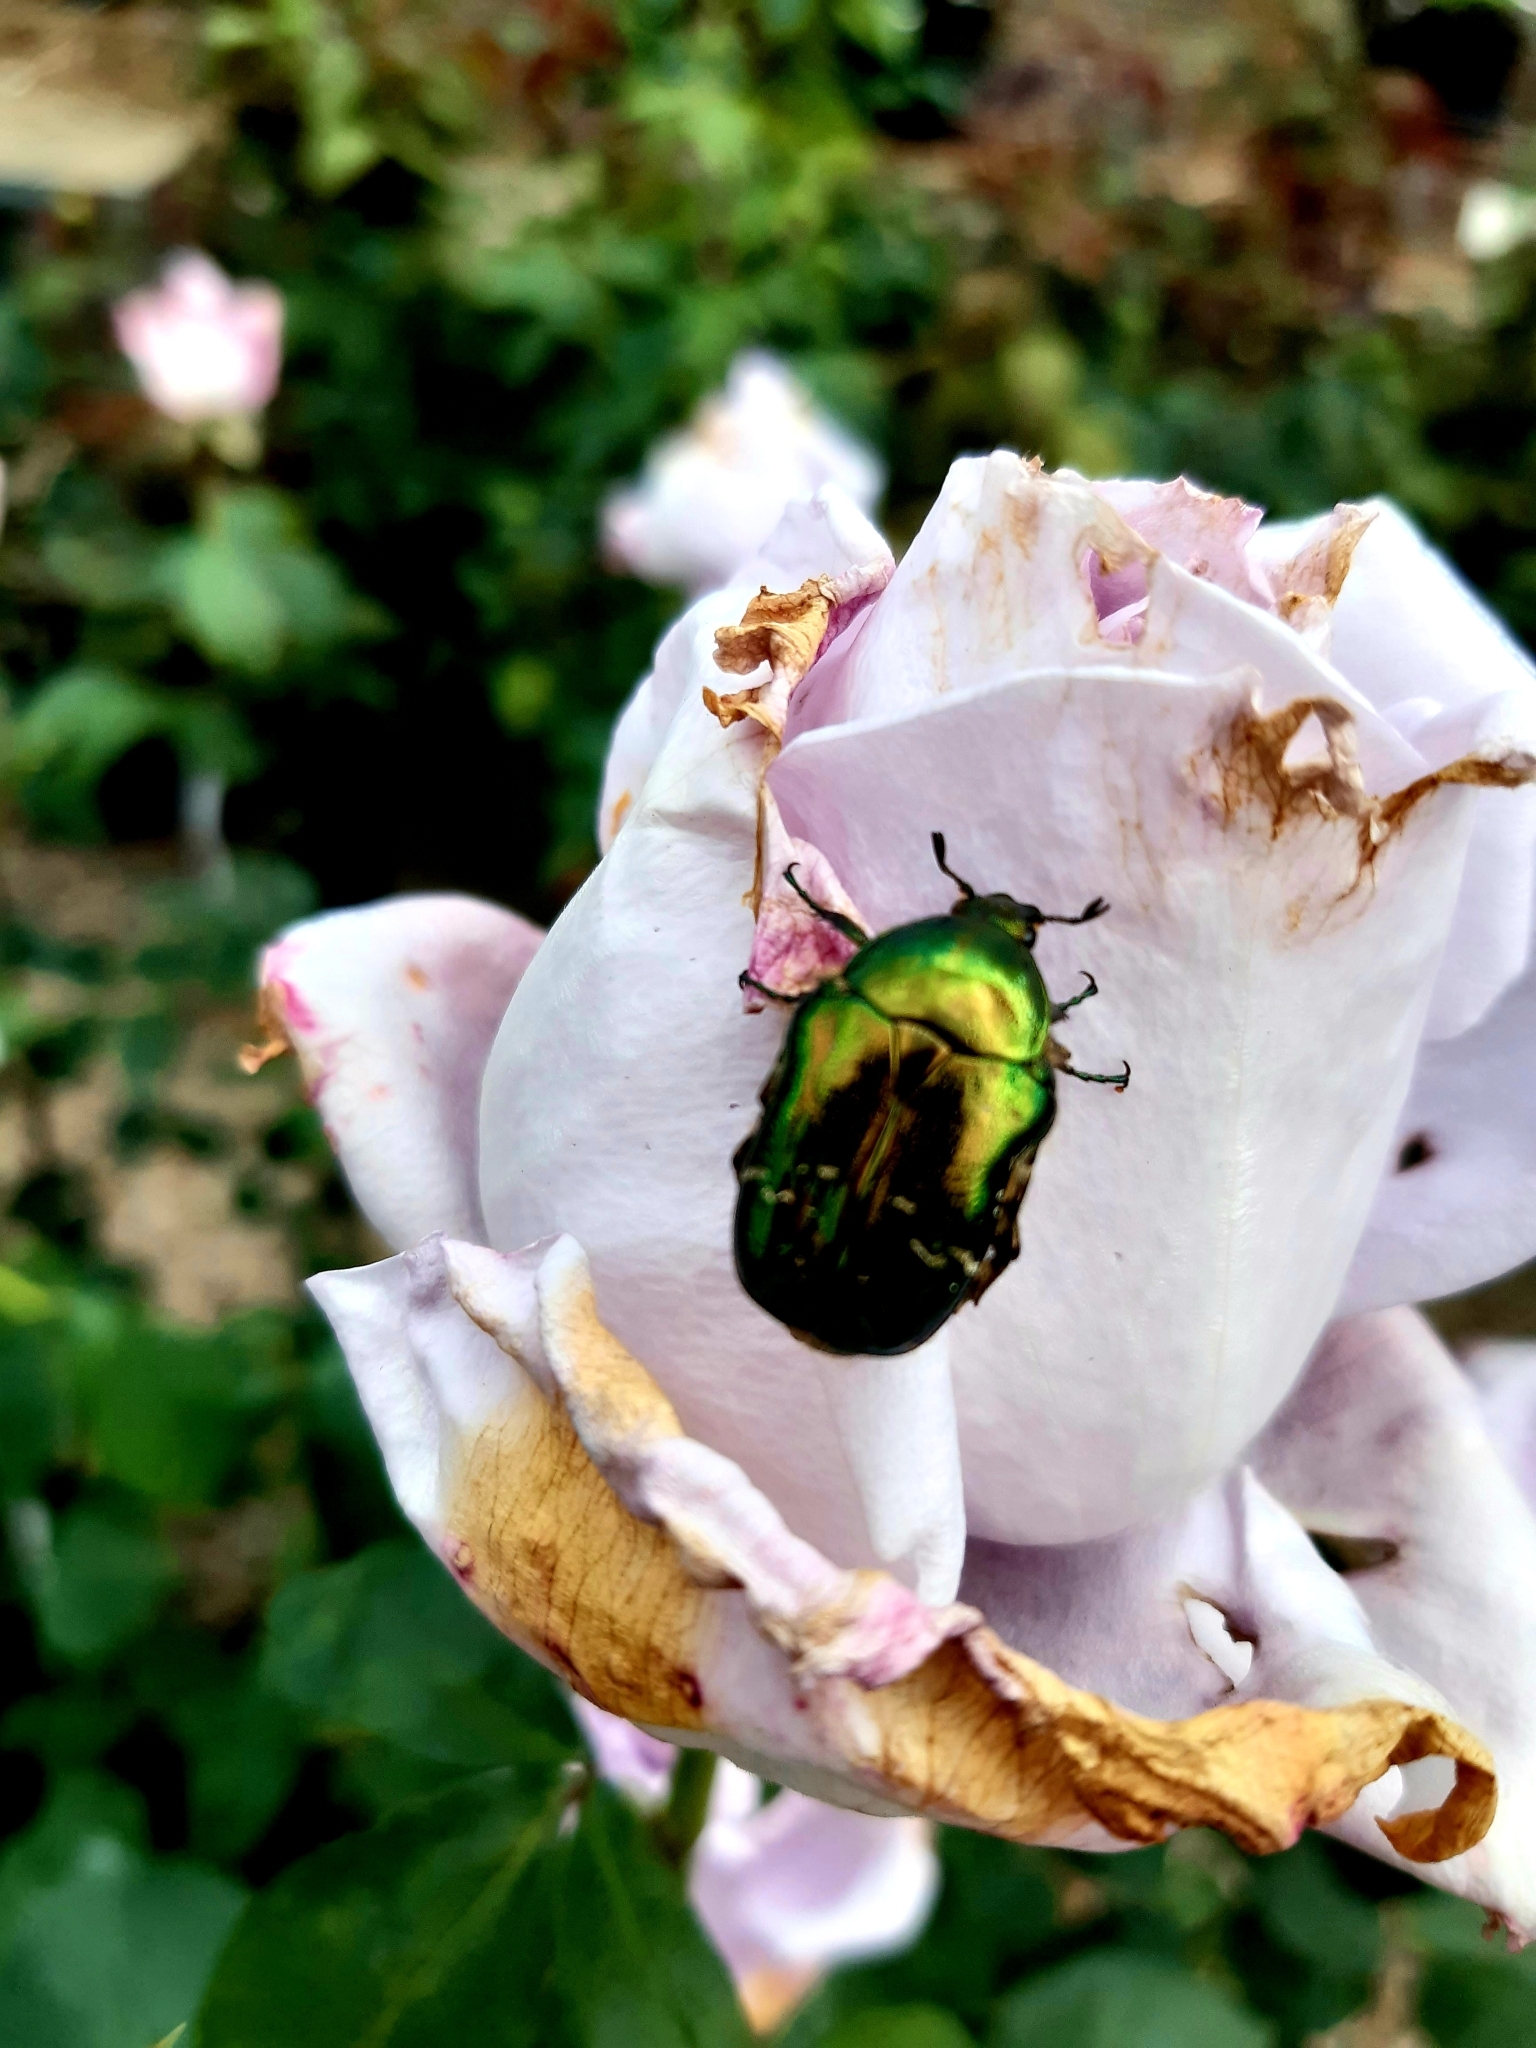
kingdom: Animalia
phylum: Arthropoda
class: Insecta
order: Coleoptera
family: Scarabaeidae
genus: Cetonia
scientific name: Cetonia aurata
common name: Rose chafer
